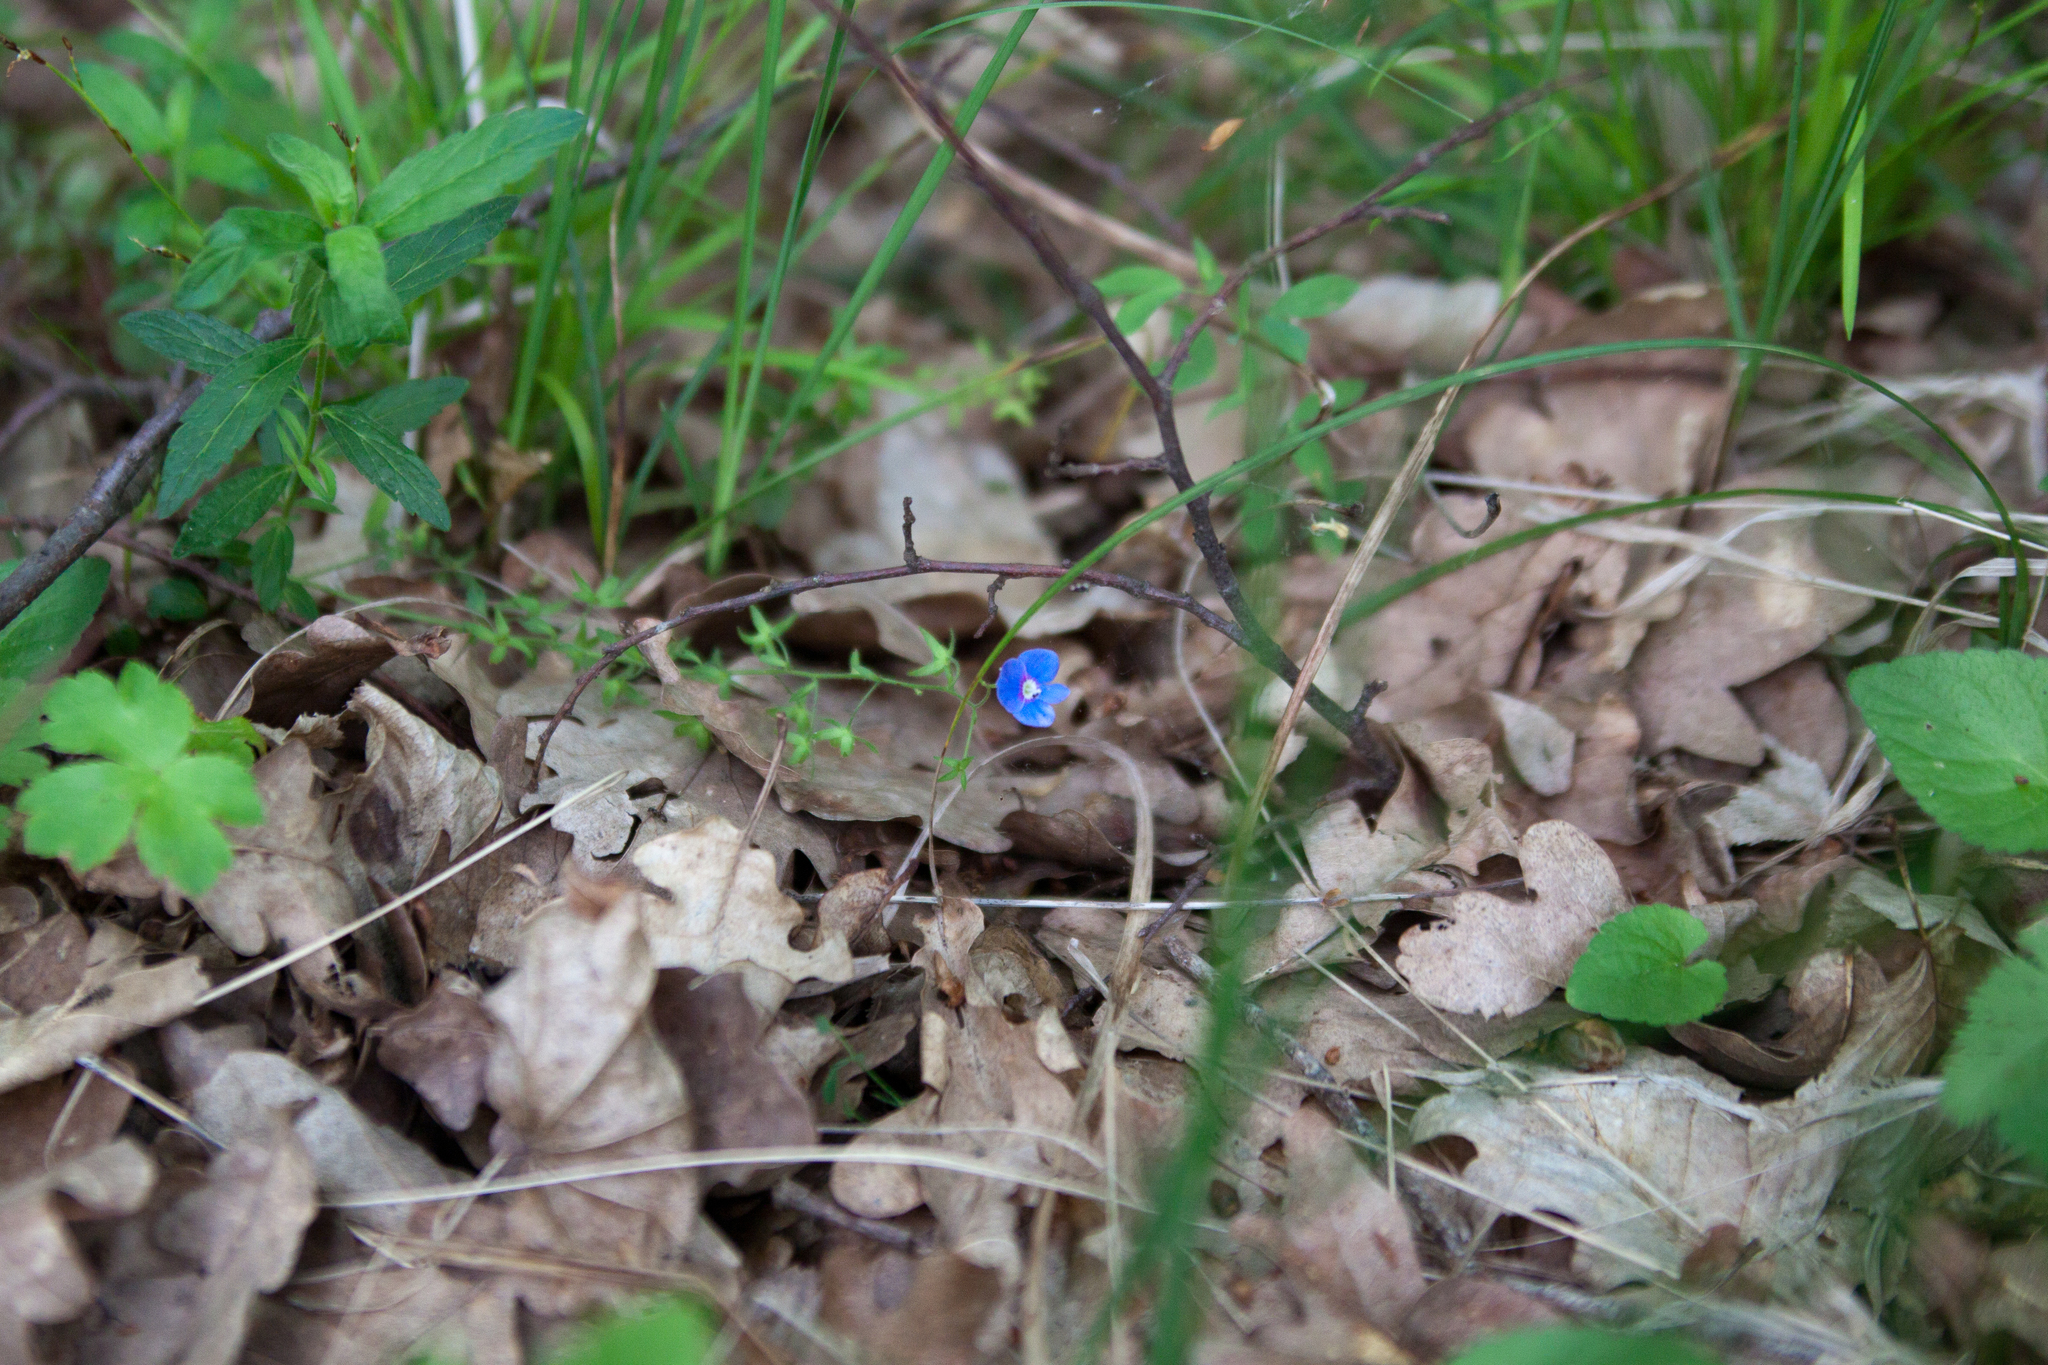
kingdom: Plantae
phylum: Tracheophyta
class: Magnoliopsida
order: Lamiales
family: Plantaginaceae
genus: Veronica
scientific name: Veronica
